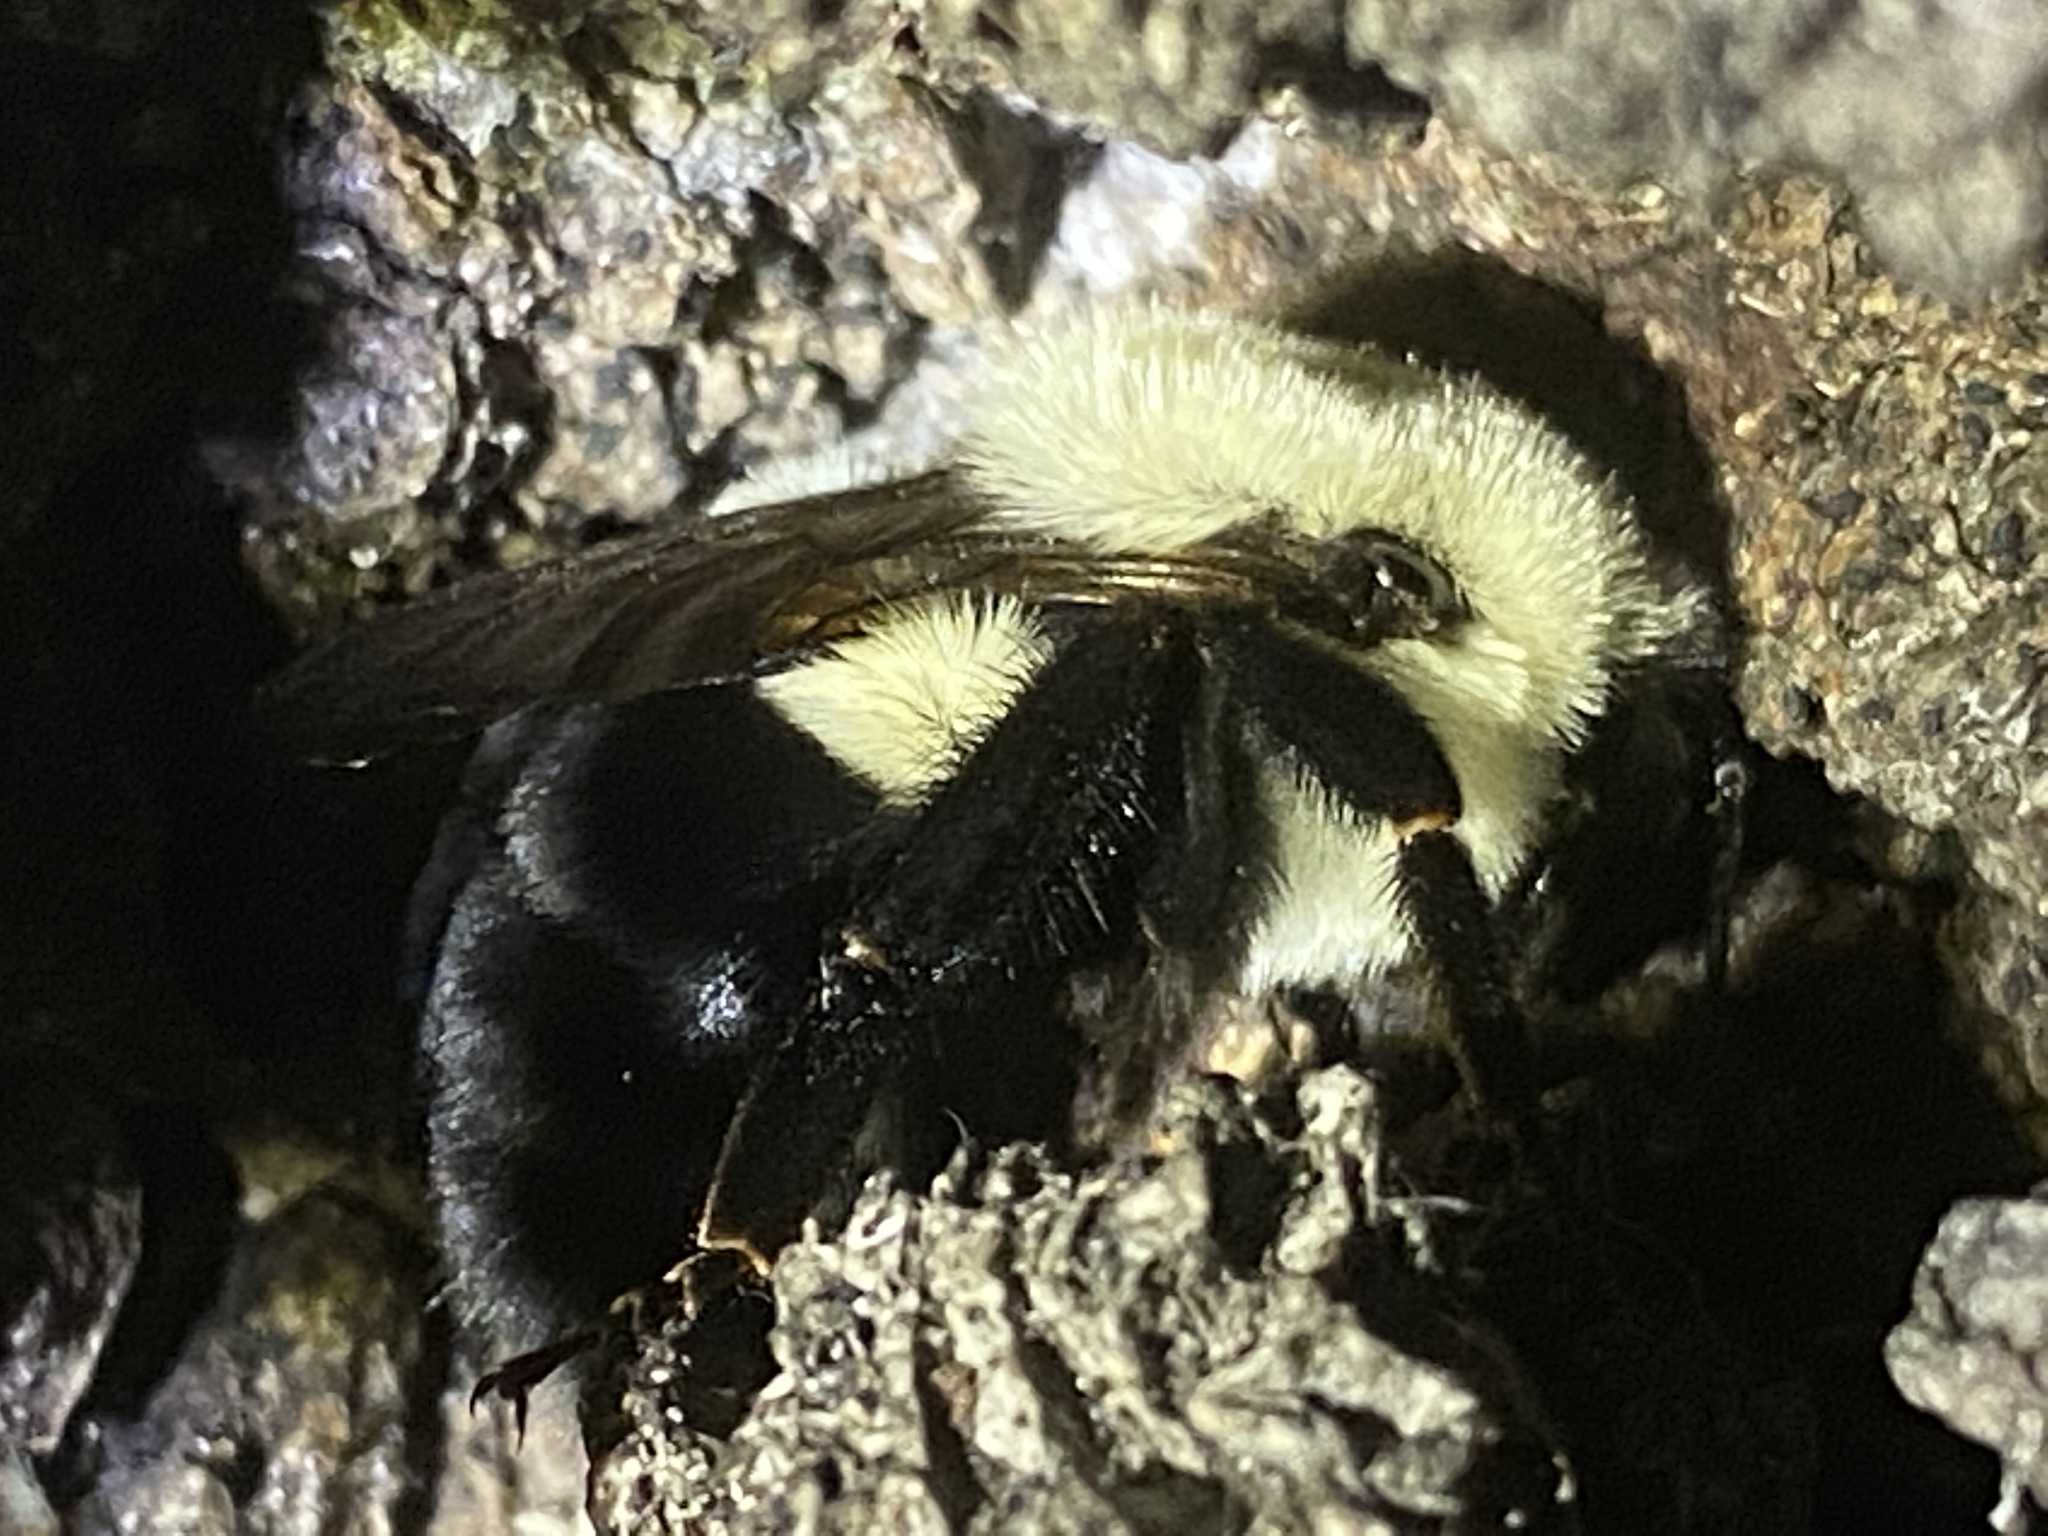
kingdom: Animalia
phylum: Arthropoda
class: Insecta
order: Hymenoptera
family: Apidae
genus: Bombus
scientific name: Bombus impatiens
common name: Common eastern bumble bee
